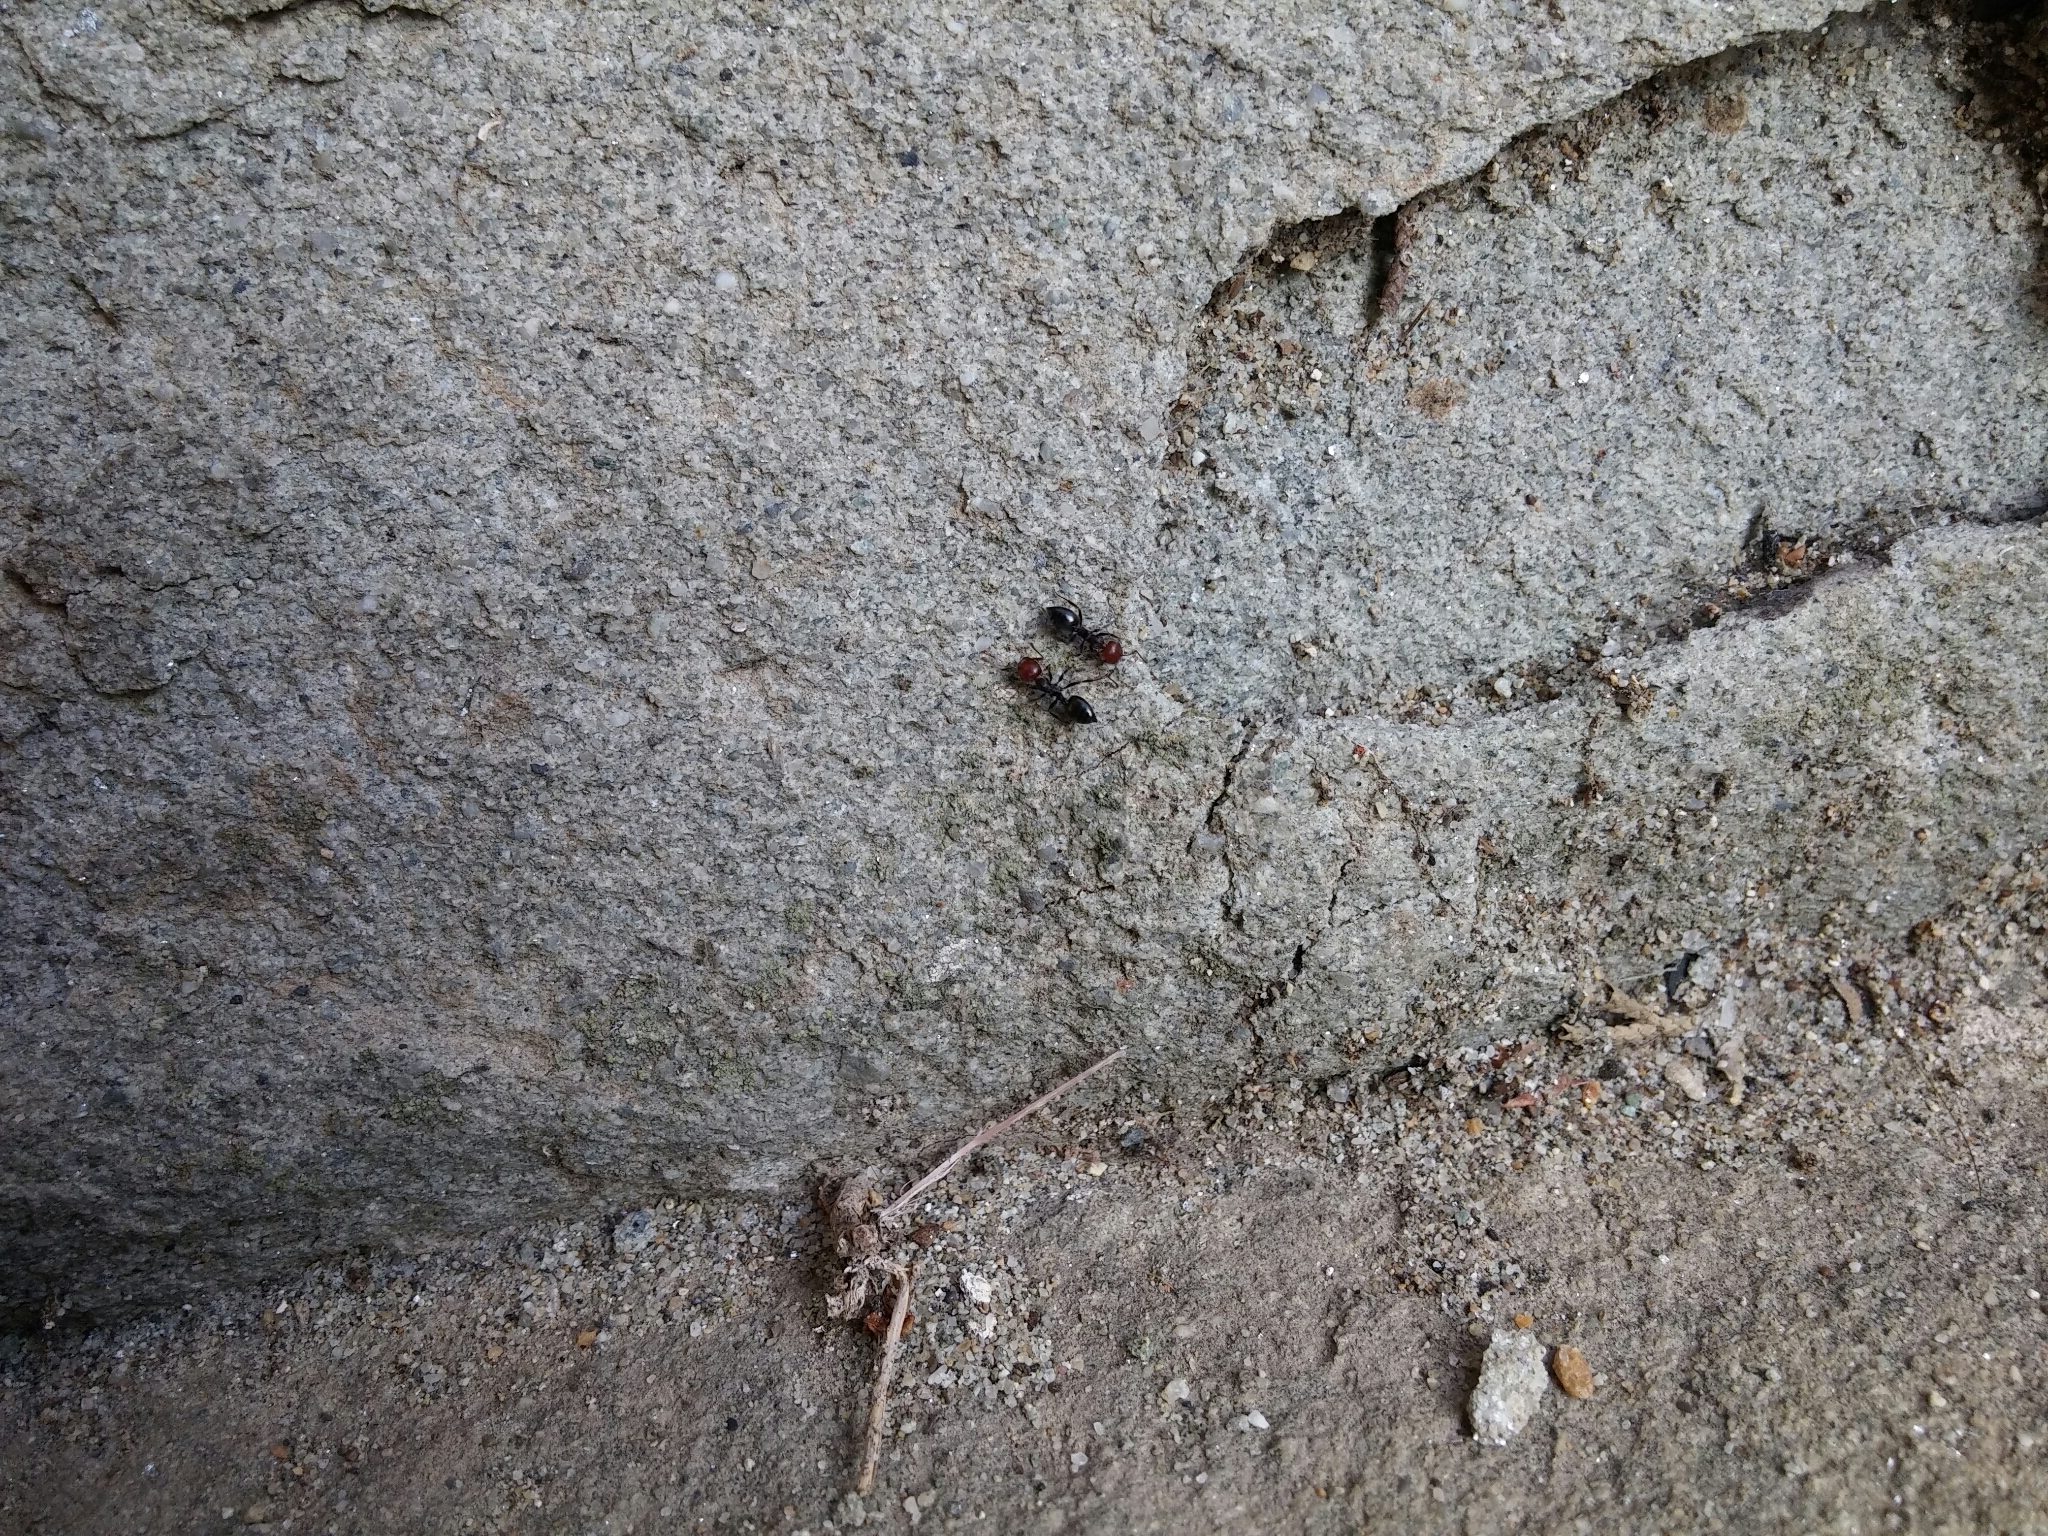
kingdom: Animalia
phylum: Arthropoda
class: Insecta
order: Hymenoptera
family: Formicidae
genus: Crematogaster
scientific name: Crematogaster scutellaris
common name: Fourmi du liège
